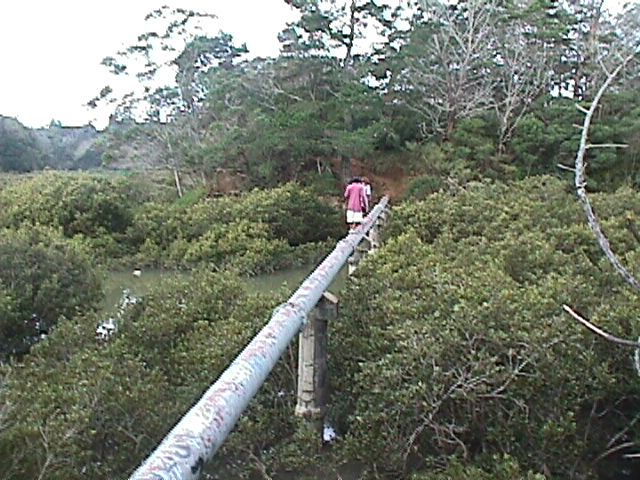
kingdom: Plantae
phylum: Tracheophyta
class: Magnoliopsida
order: Lamiales
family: Acanthaceae
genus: Avicennia
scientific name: Avicennia marina
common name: Gray mangrove
